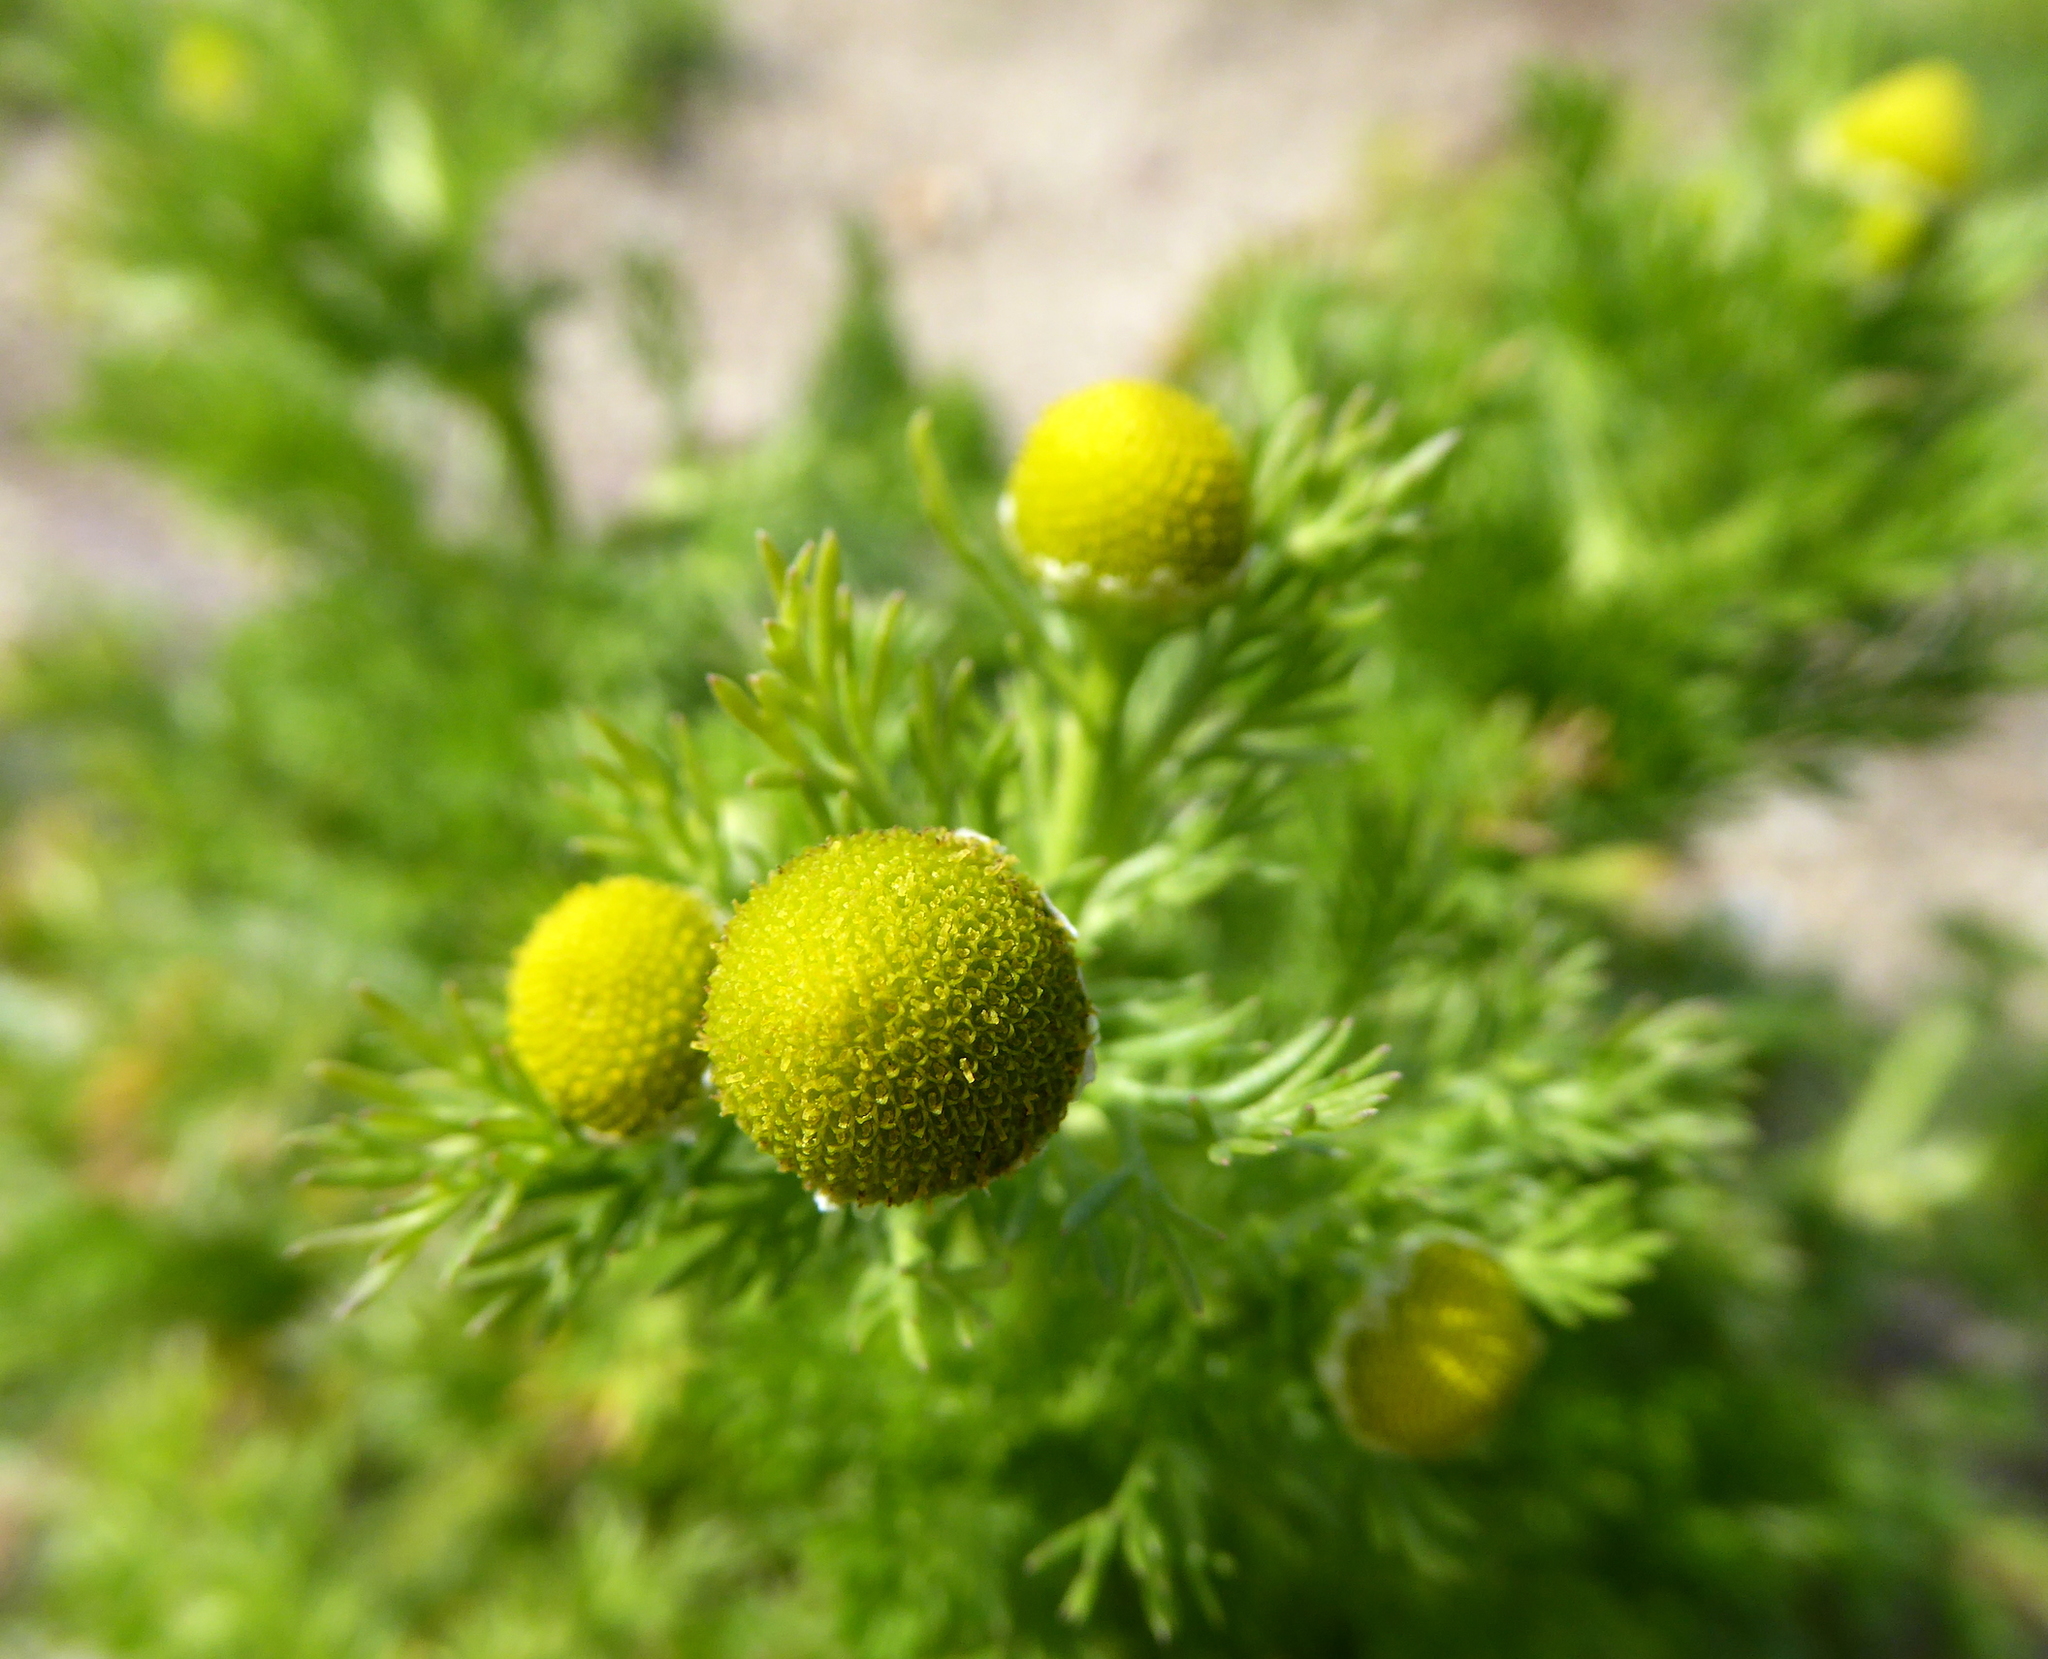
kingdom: Plantae
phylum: Tracheophyta
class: Magnoliopsida
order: Asterales
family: Asteraceae
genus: Matricaria
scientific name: Matricaria discoidea
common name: Disc mayweed
